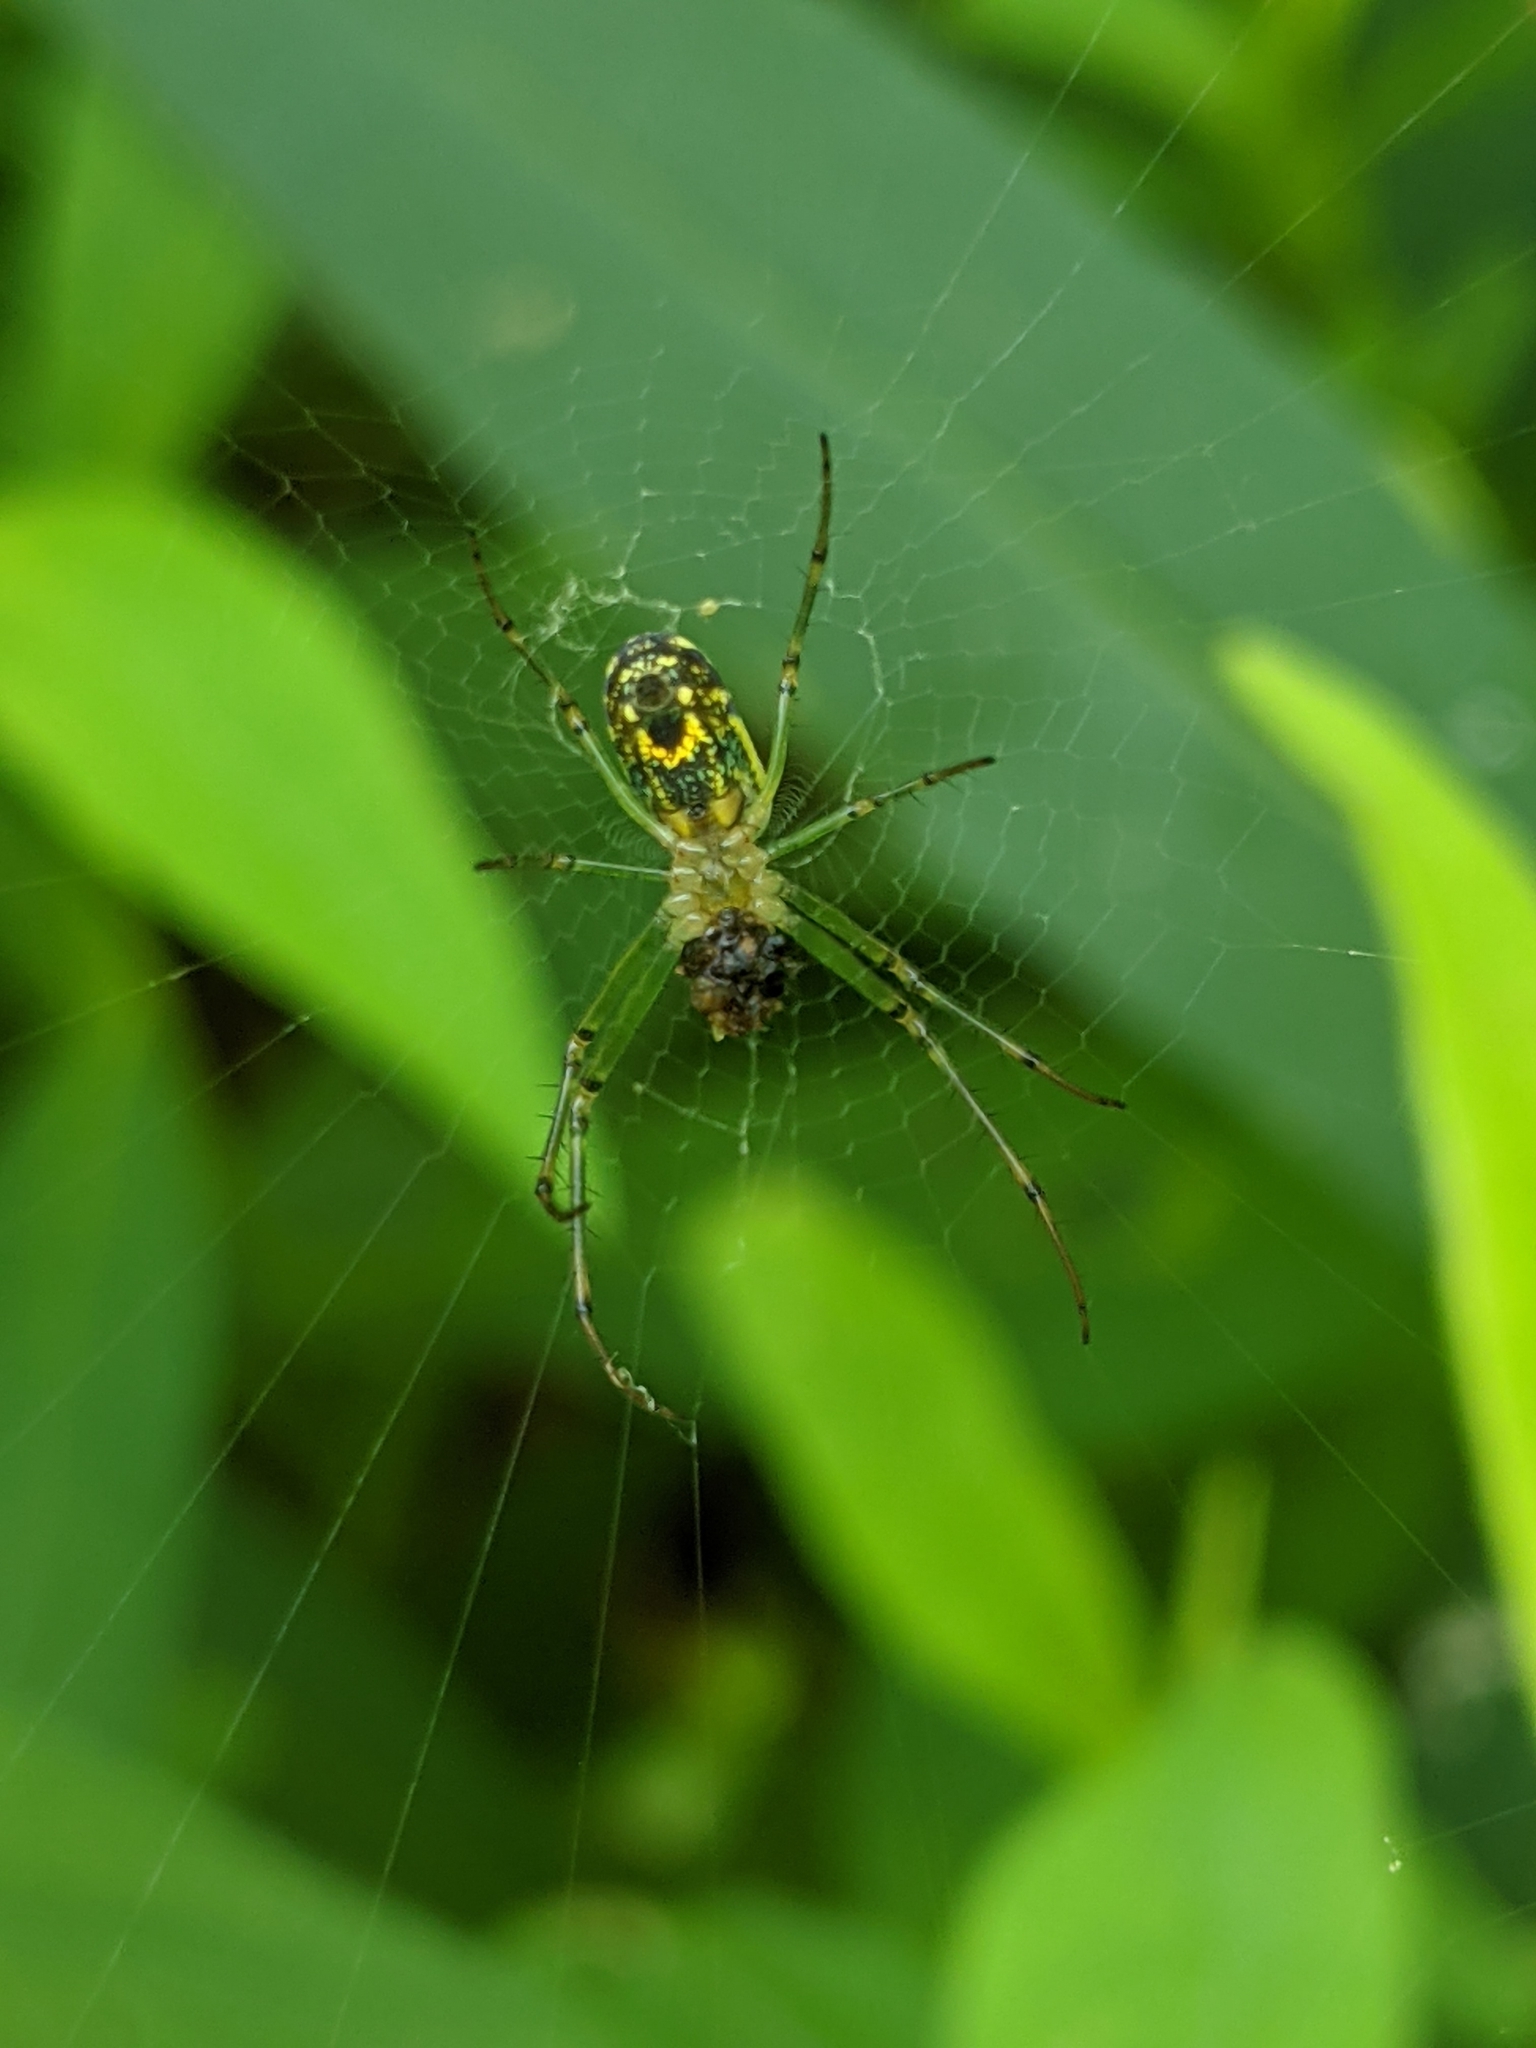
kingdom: Animalia
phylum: Arthropoda
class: Arachnida
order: Araneae
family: Tetragnathidae
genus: Leucauge
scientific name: Leucauge venusta
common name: Longjawed orb weavers
